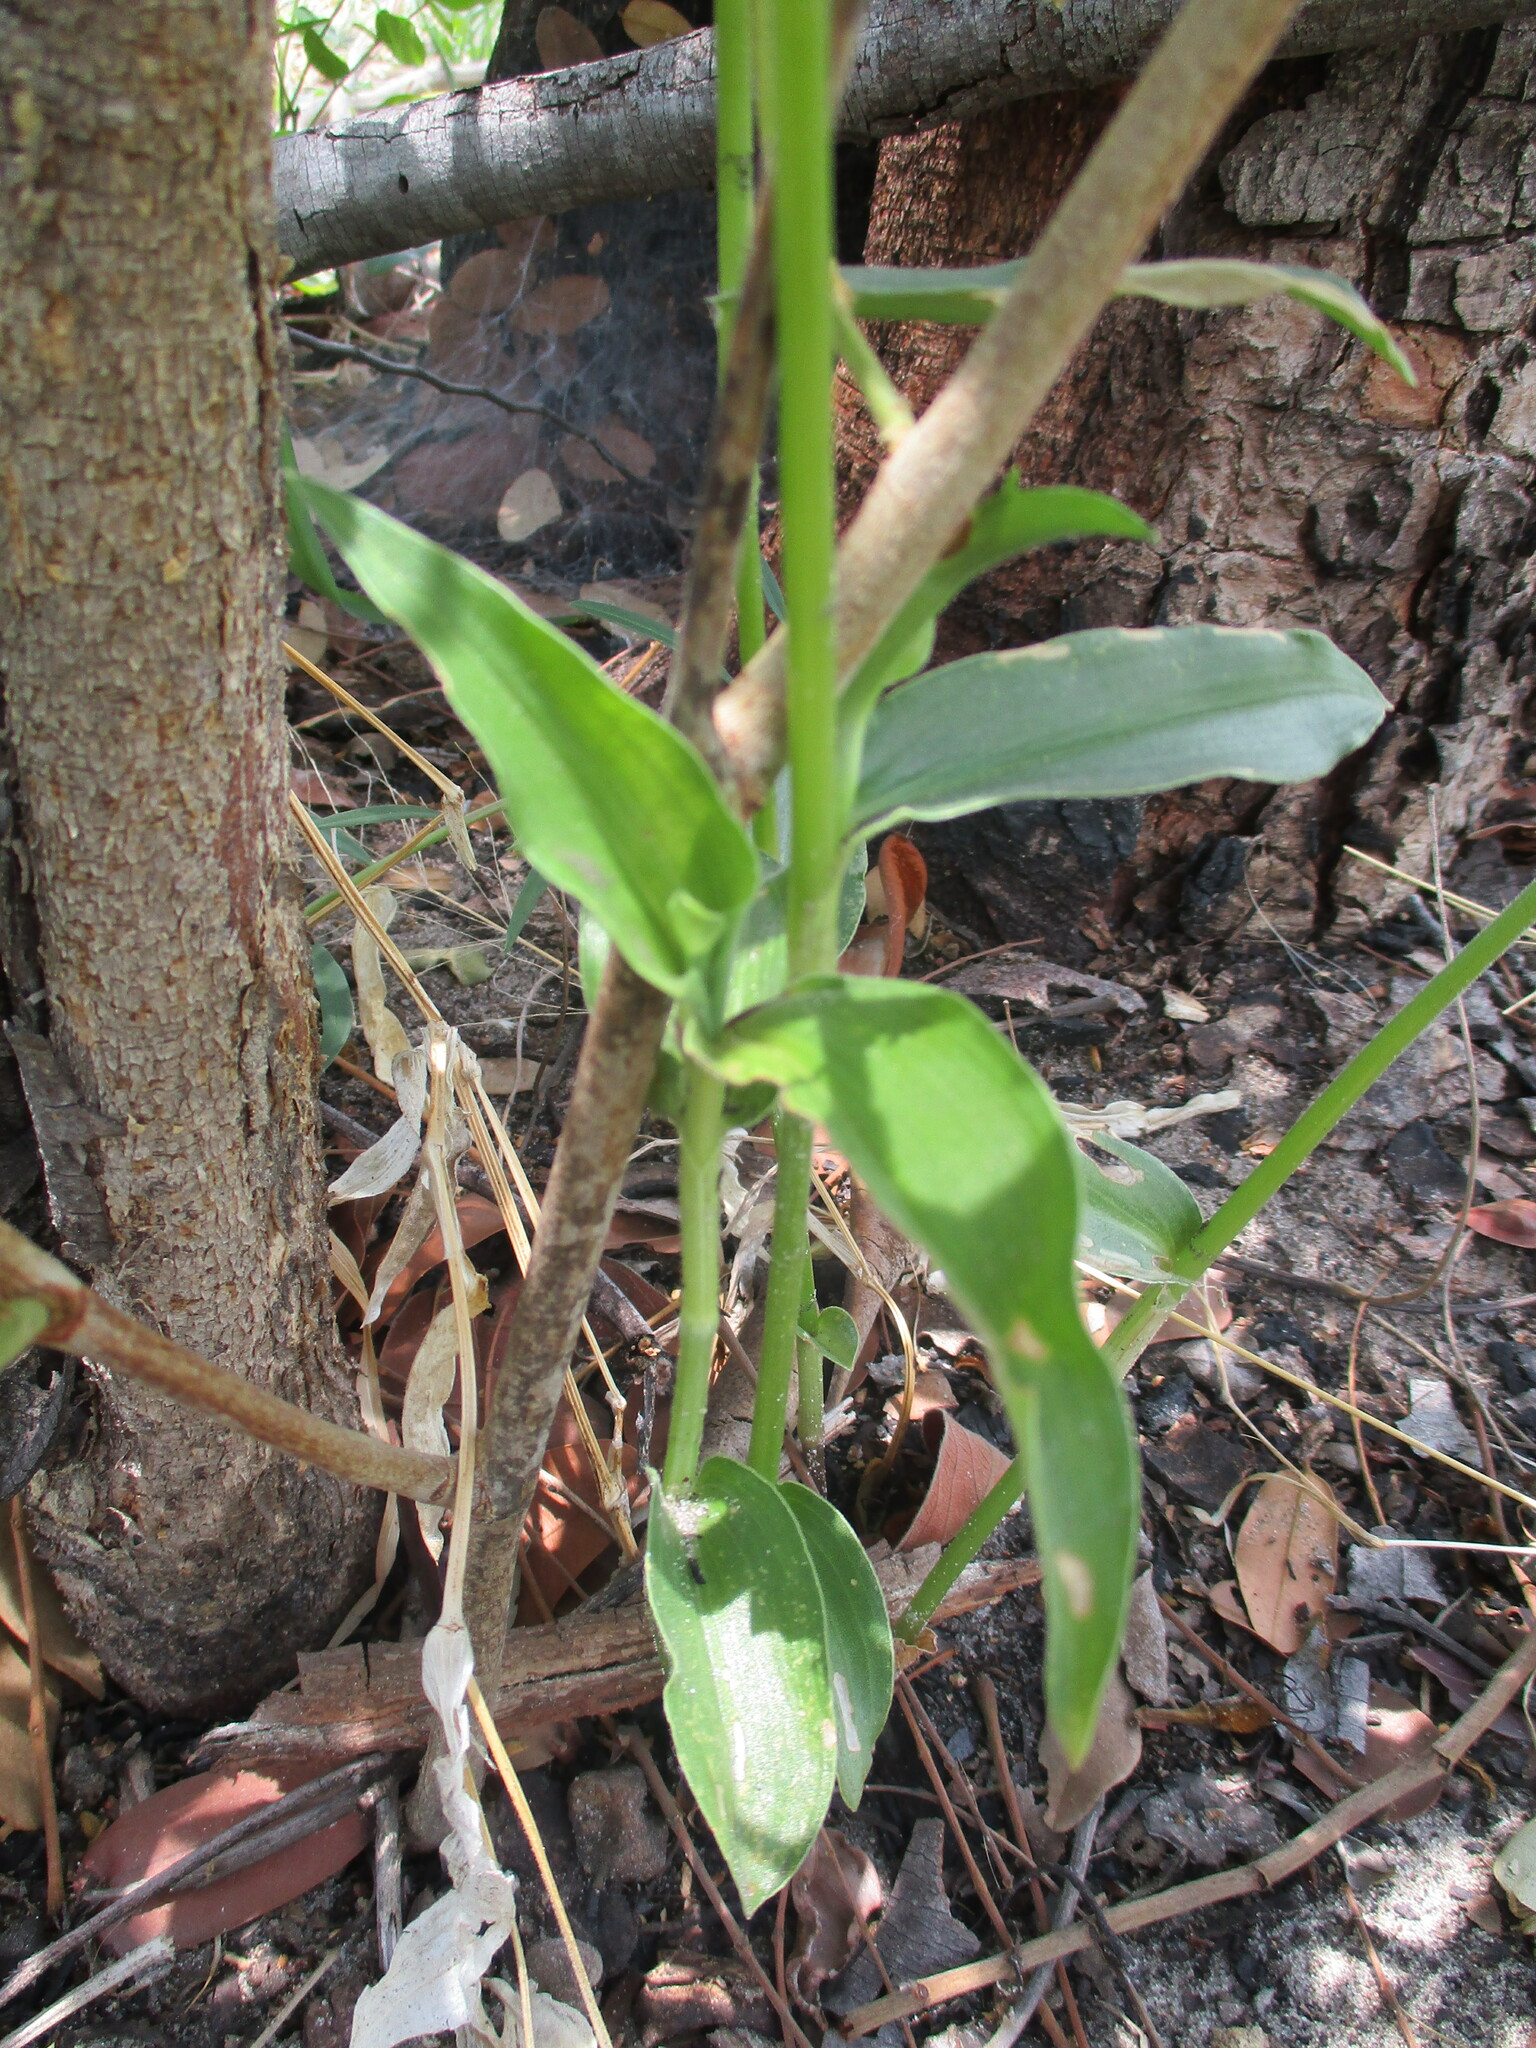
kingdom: Plantae
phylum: Tracheophyta
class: Liliopsida
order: Commelinales
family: Commelinaceae
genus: Commelina
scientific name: Commelina africana
